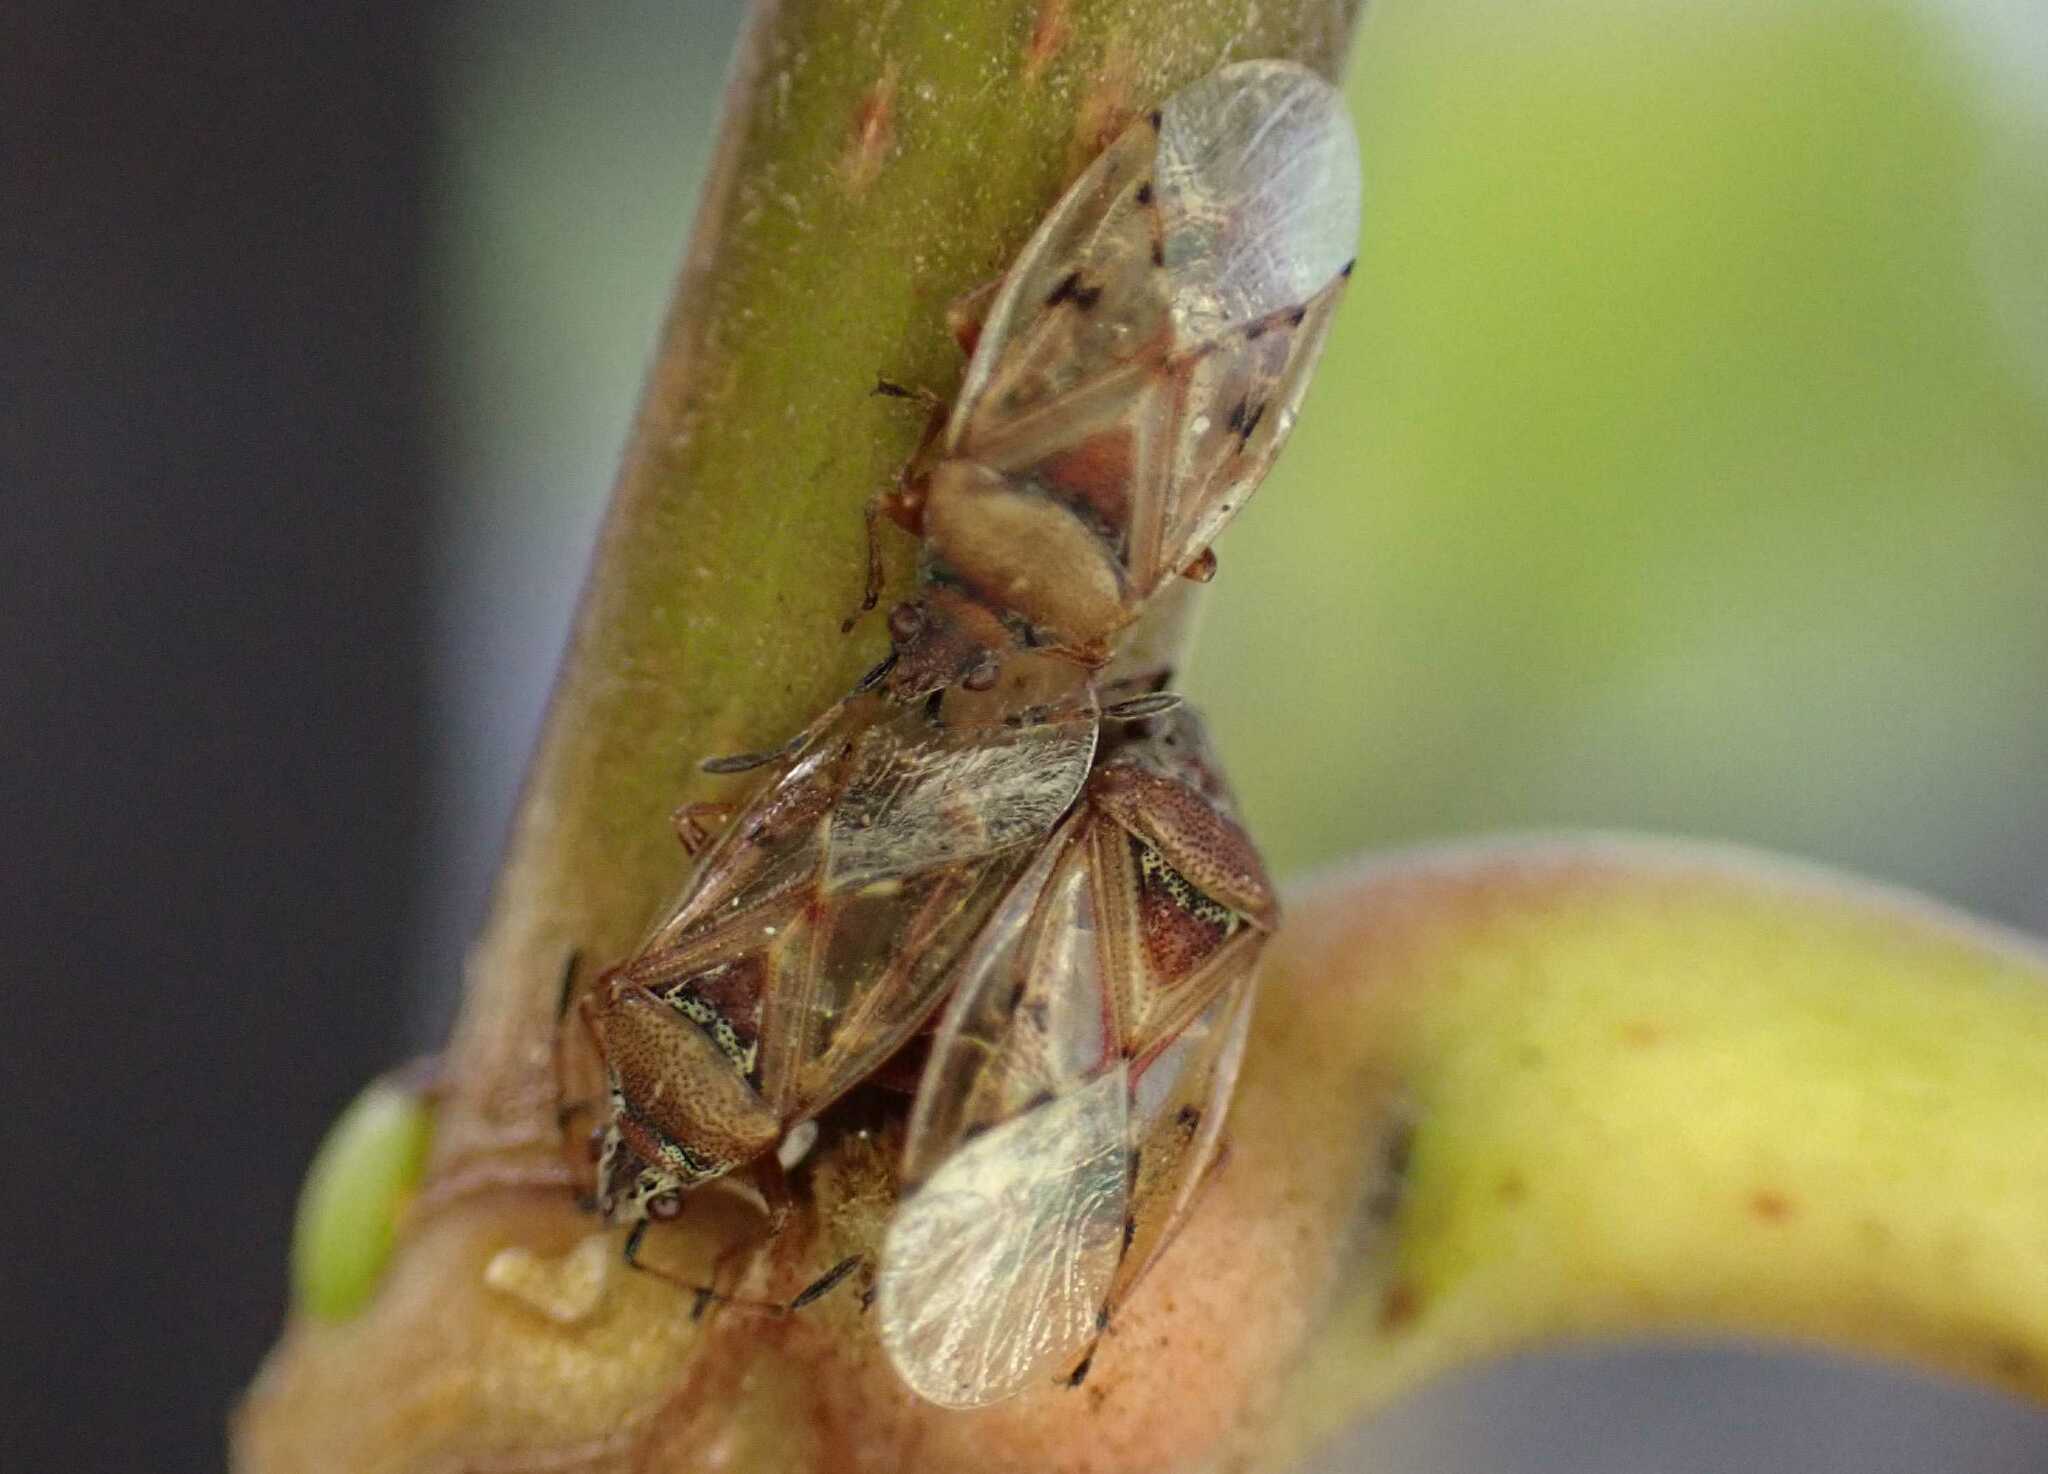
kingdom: Animalia
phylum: Arthropoda
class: Insecta
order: Hemiptera
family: Lygaeidae
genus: Kleidocerys
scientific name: Kleidocerys resedae
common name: Birch catkin bug
